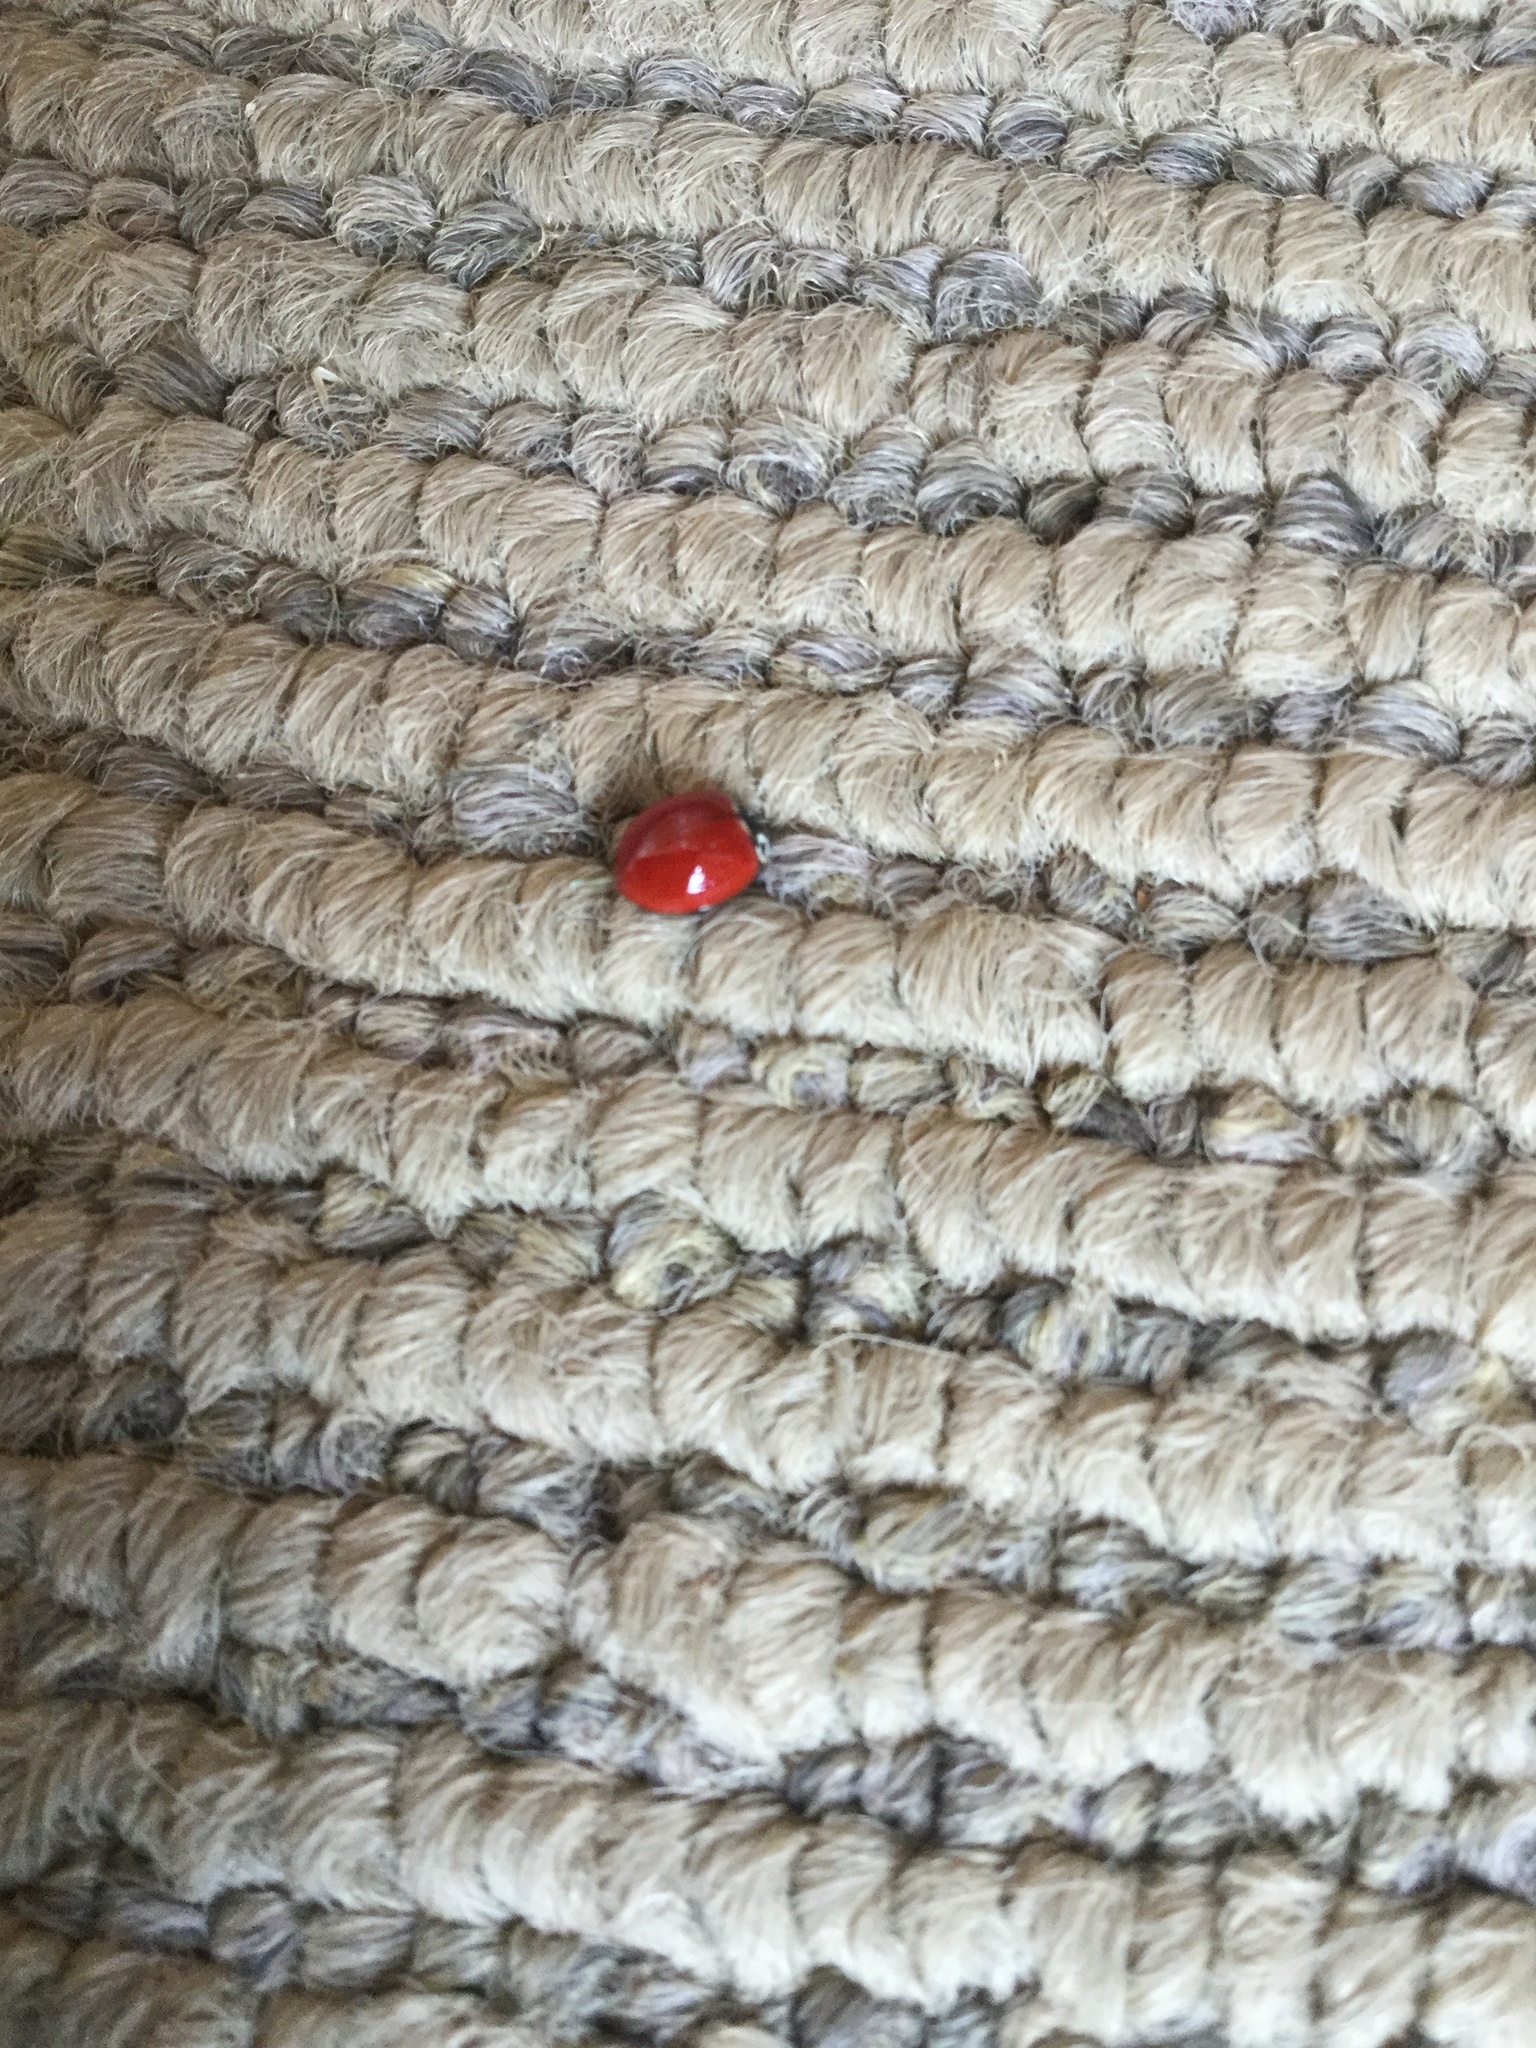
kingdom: Animalia
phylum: Arthropoda
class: Insecta
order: Coleoptera
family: Coccinellidae
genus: Cycloneda
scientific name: Cycloneda polita
